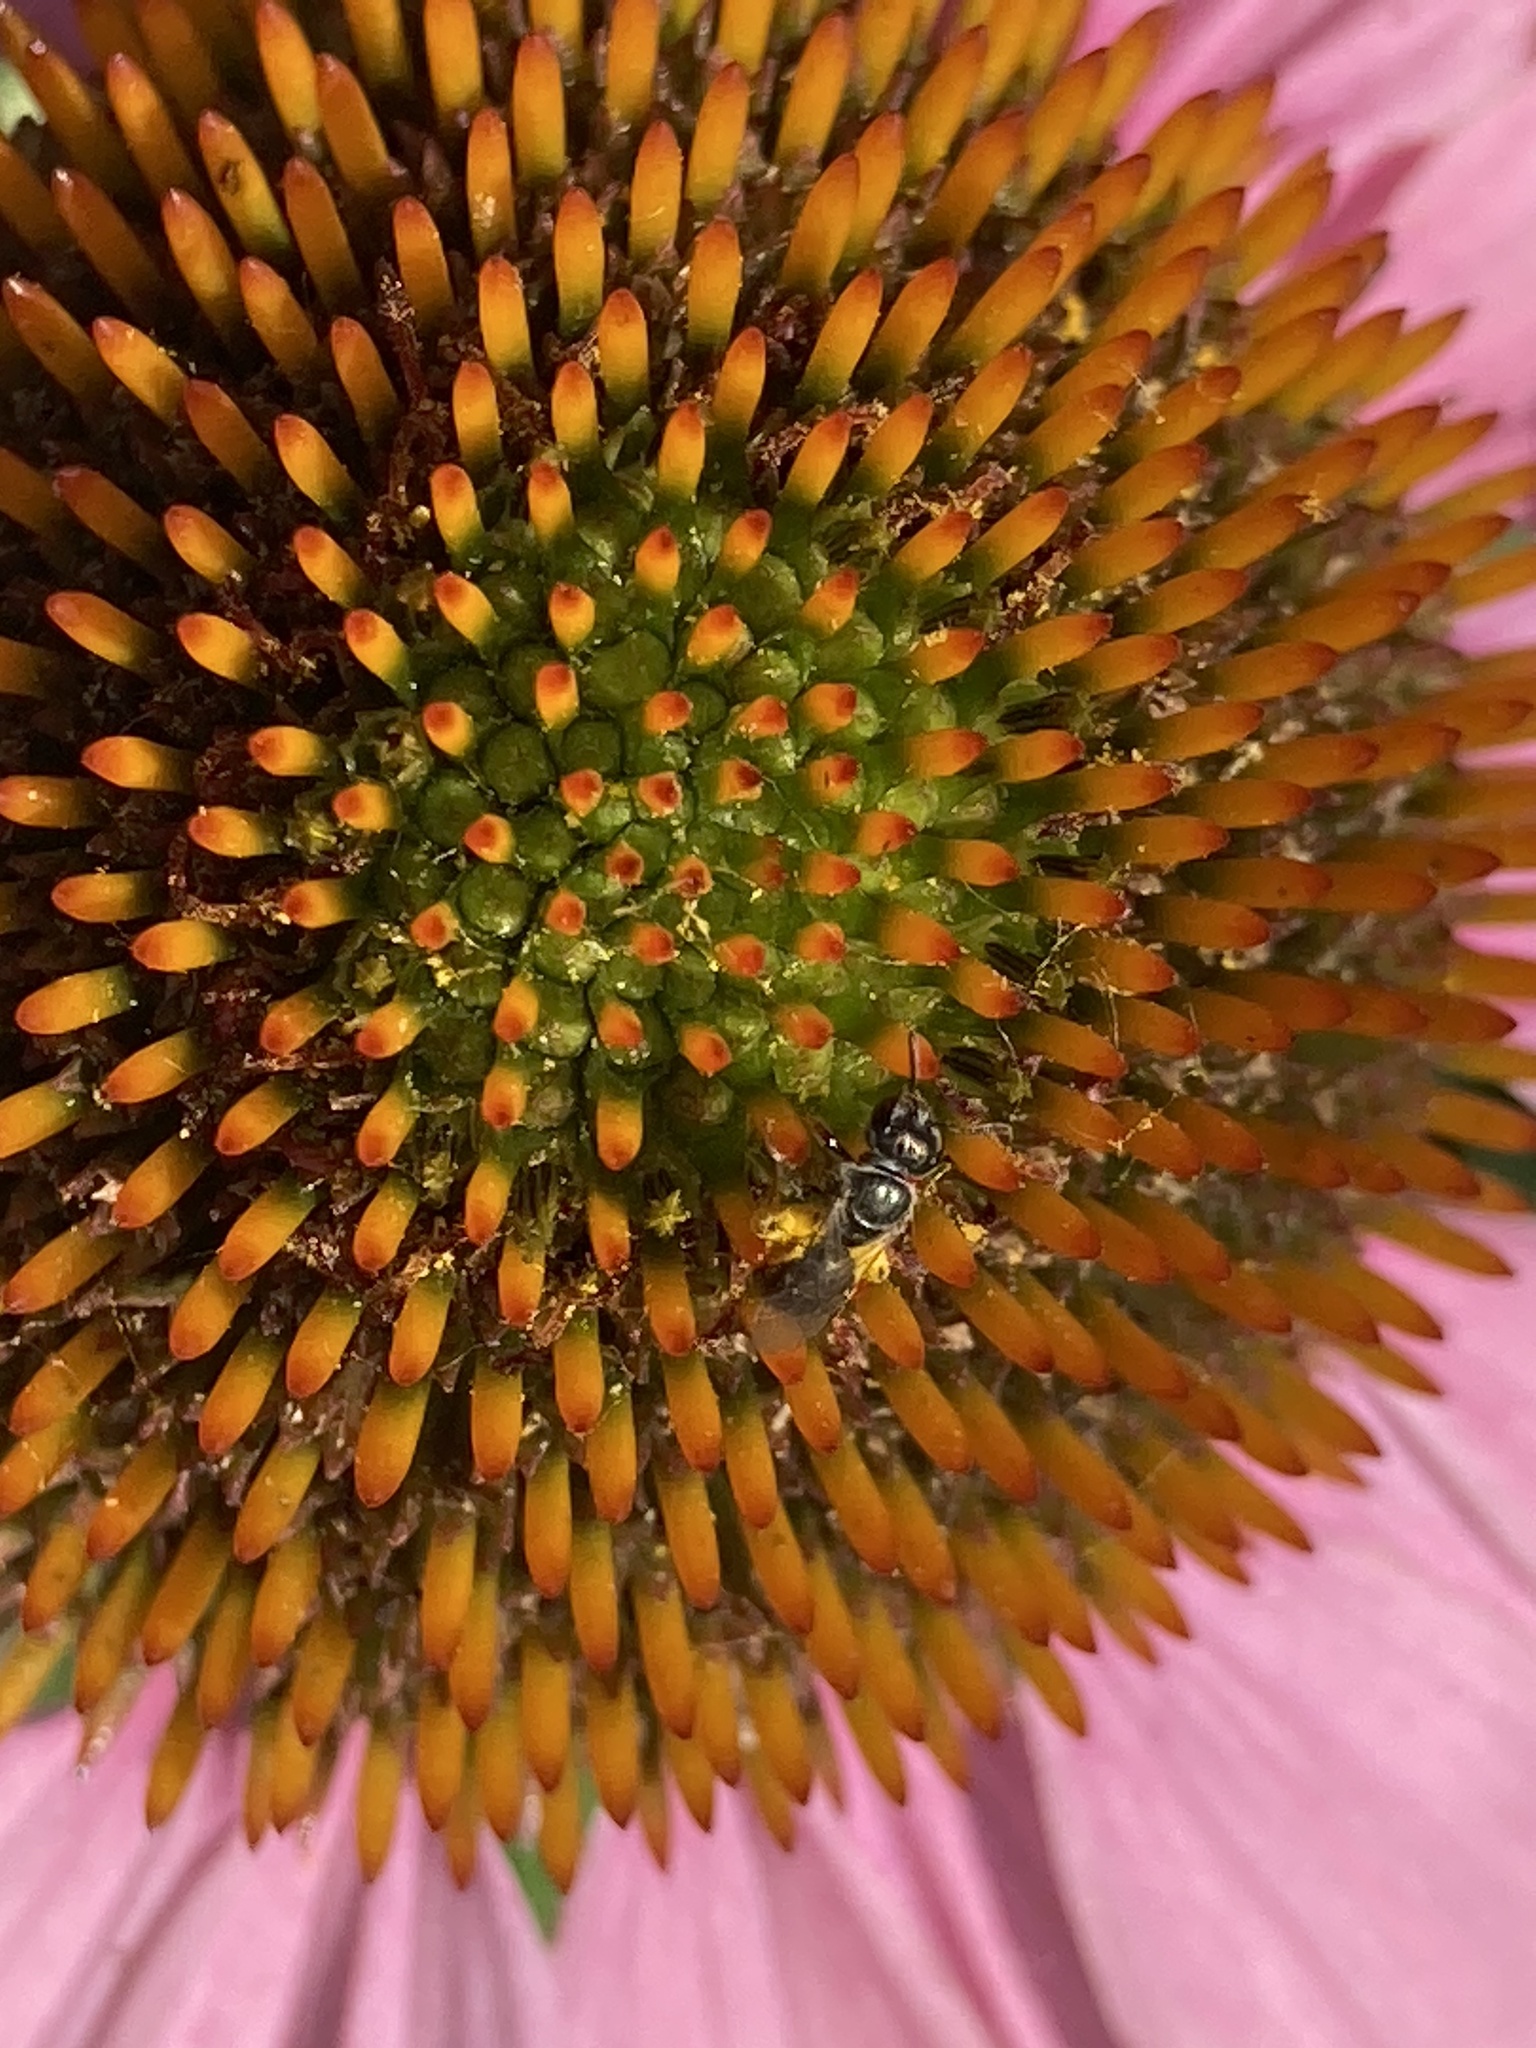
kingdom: Animalia
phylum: Arthropoda
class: Insecta
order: Hymenoptera
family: Halictidae
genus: Dialictus
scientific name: Dialictus
